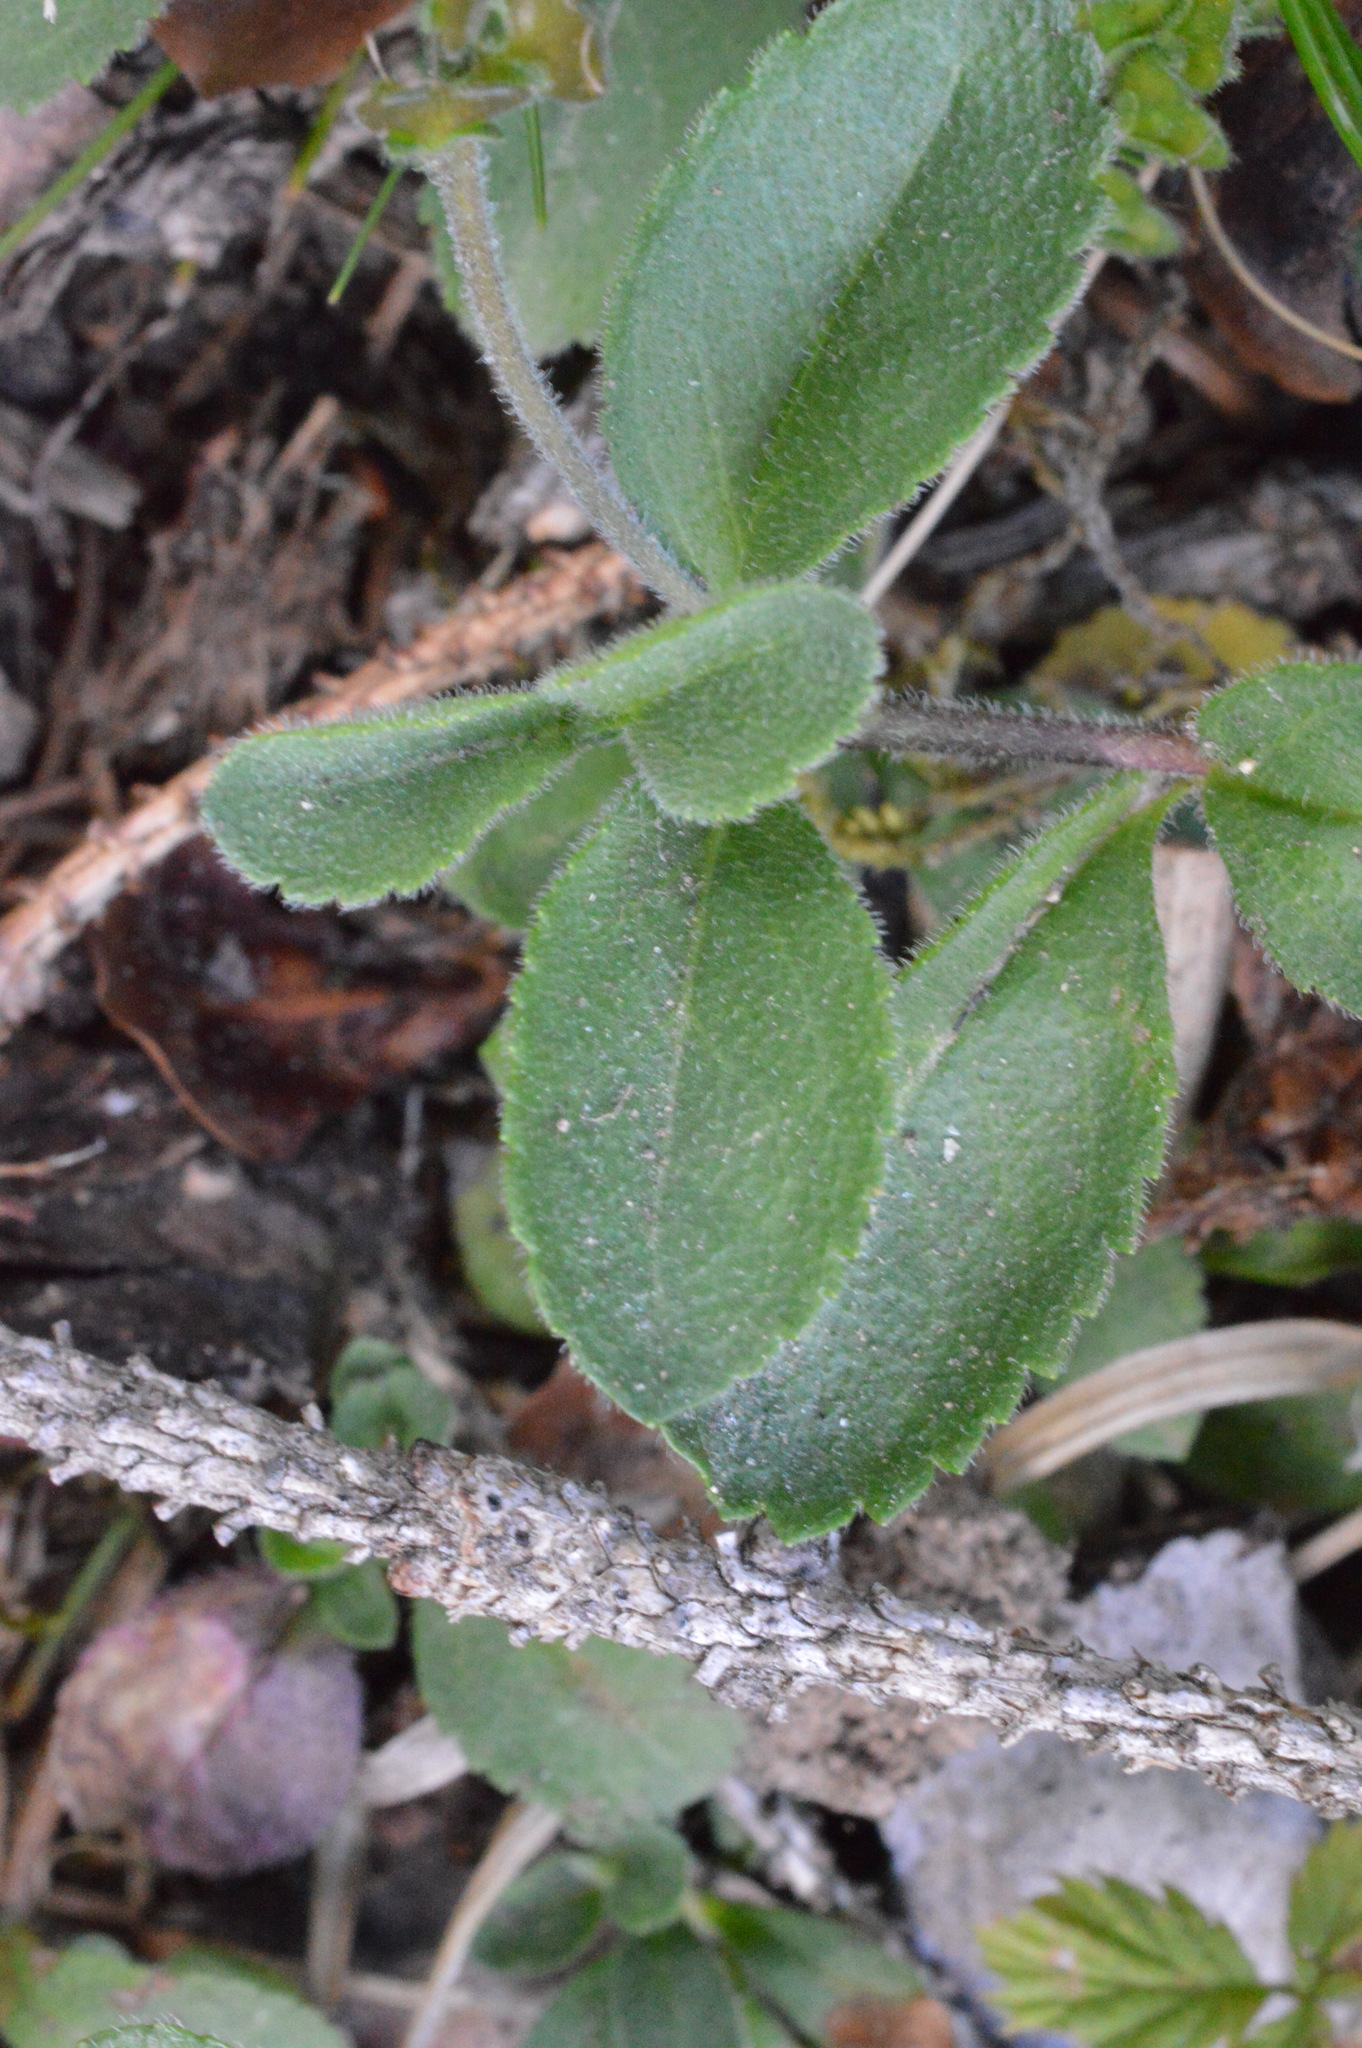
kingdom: Plantae
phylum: Tracheophyta
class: Magnoliopsida
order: Lamiales
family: Plantaginaceae
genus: Veronica
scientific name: Veronica officinalis
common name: Common speedwell
